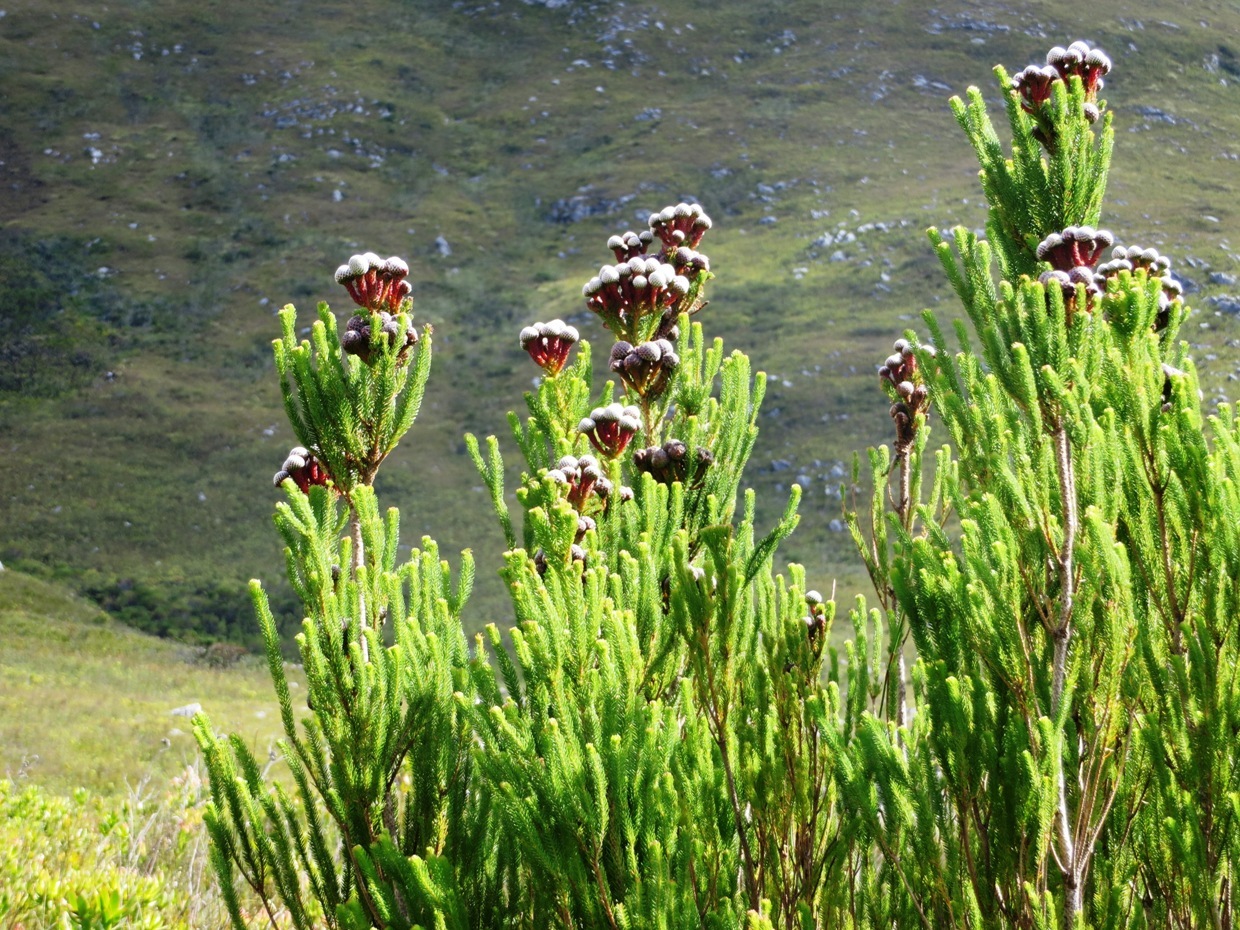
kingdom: Plantae
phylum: Tracheophyta
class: Magnoliopsida
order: Bruniales
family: Bruniaceae
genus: Berzelia
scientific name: Berzelia stokoei
